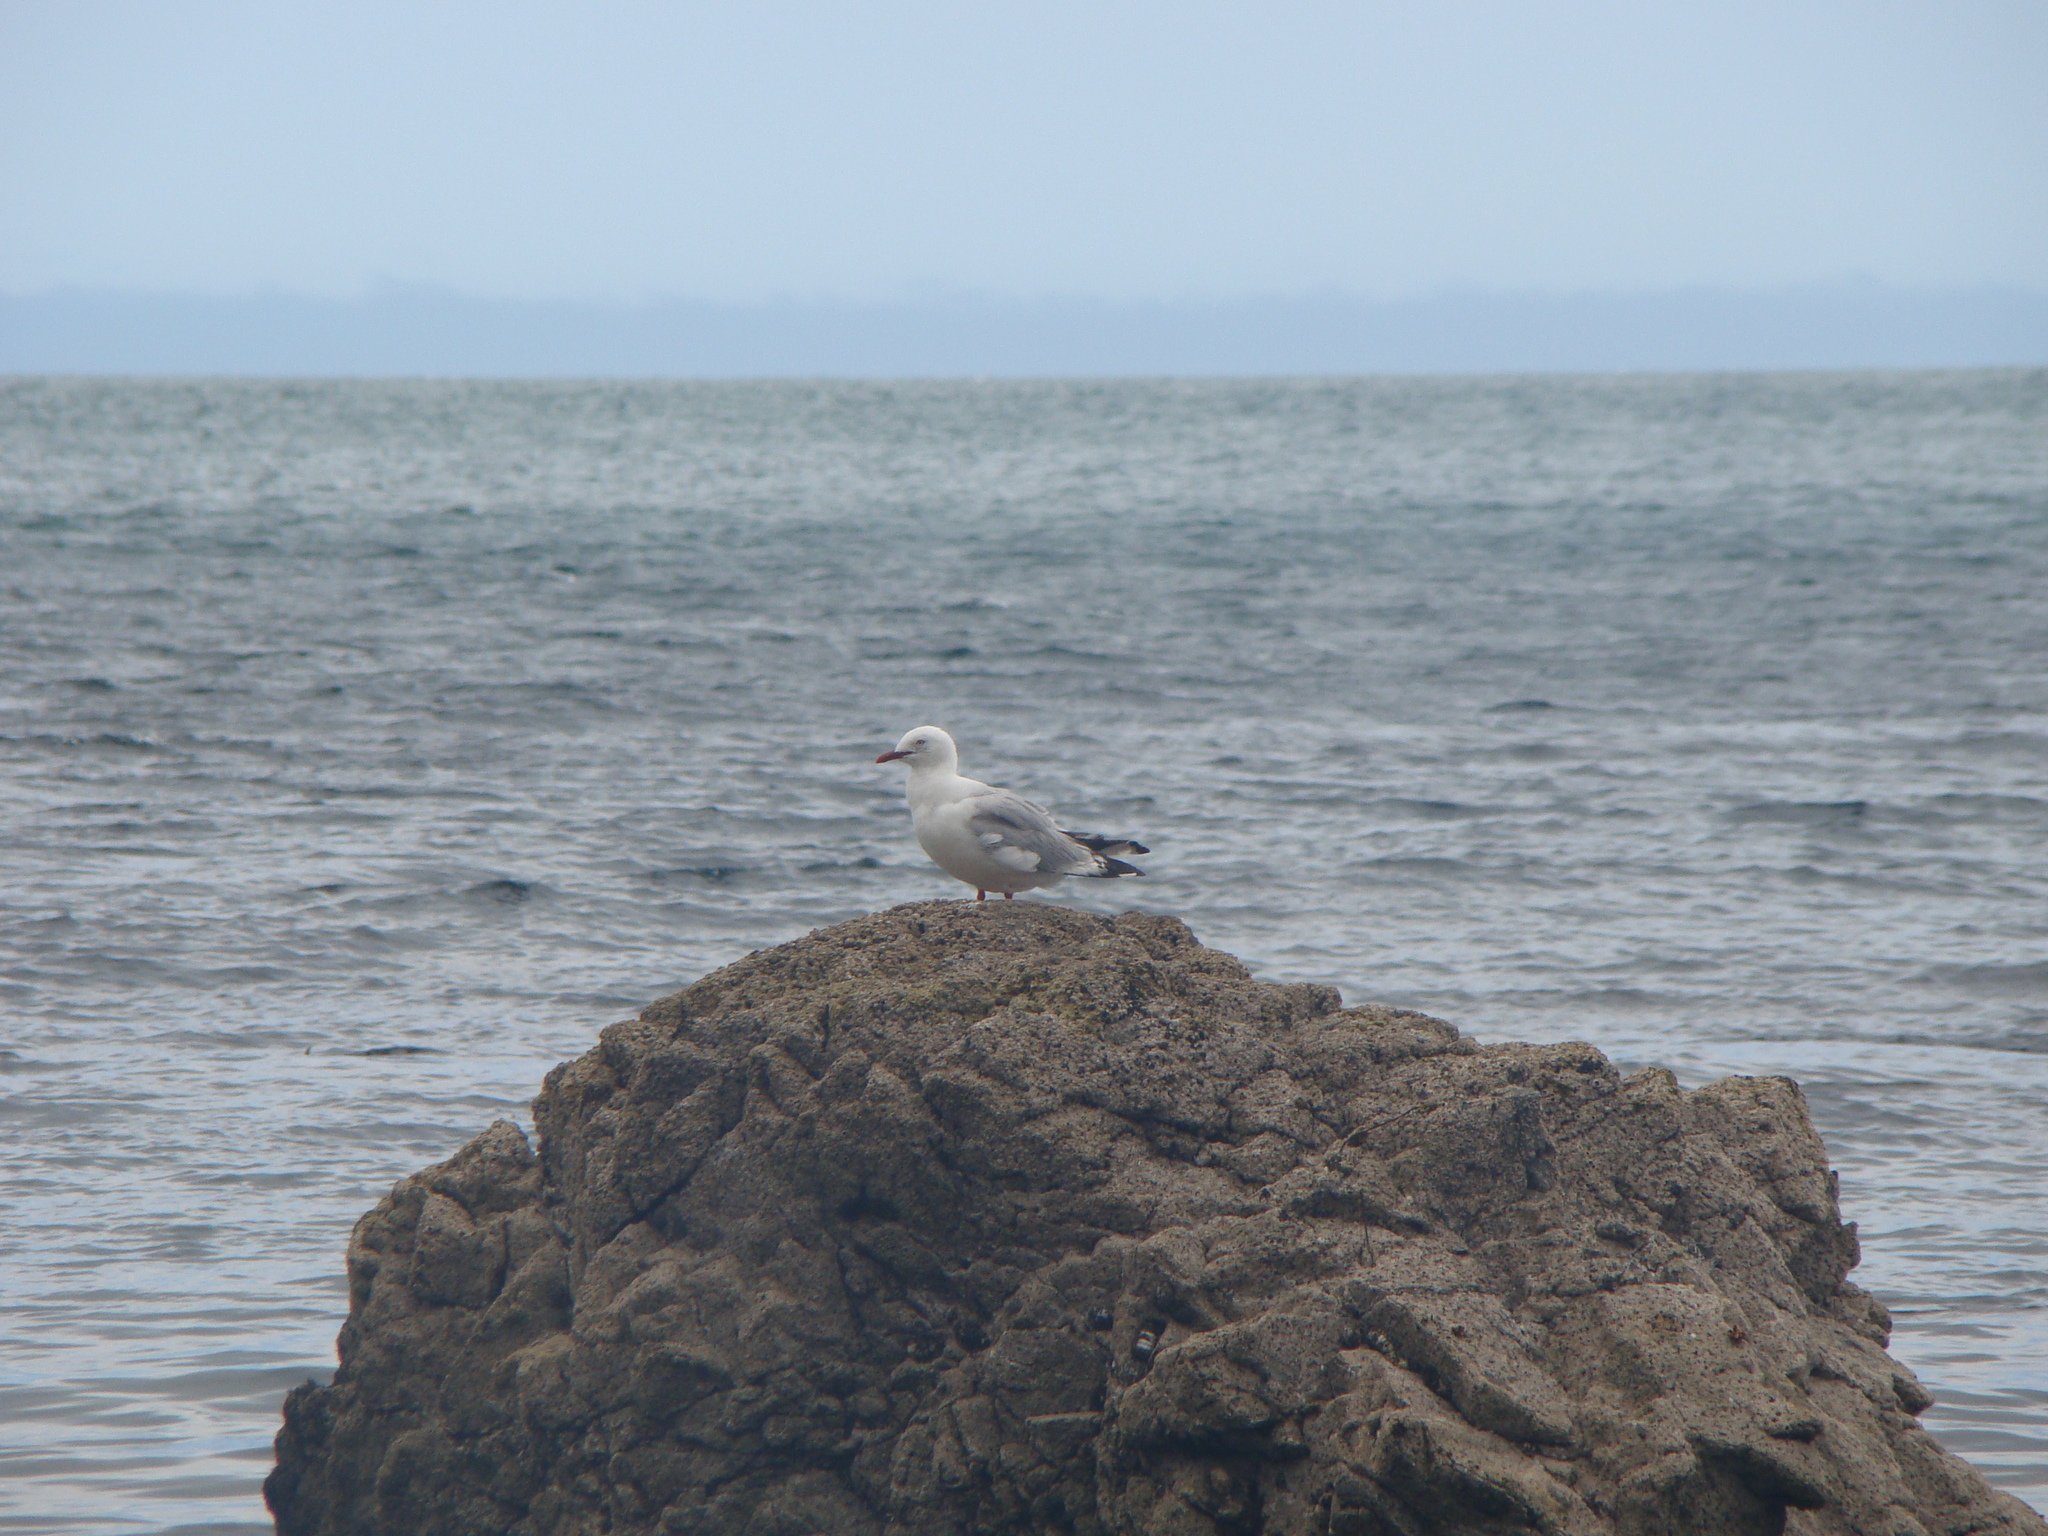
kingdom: Animalia
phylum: Chordata
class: Aves
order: Charadriiformes
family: Laridae
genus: Chroicocephalus
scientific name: Chroicocephalus novaehollandiae
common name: Silver gull
